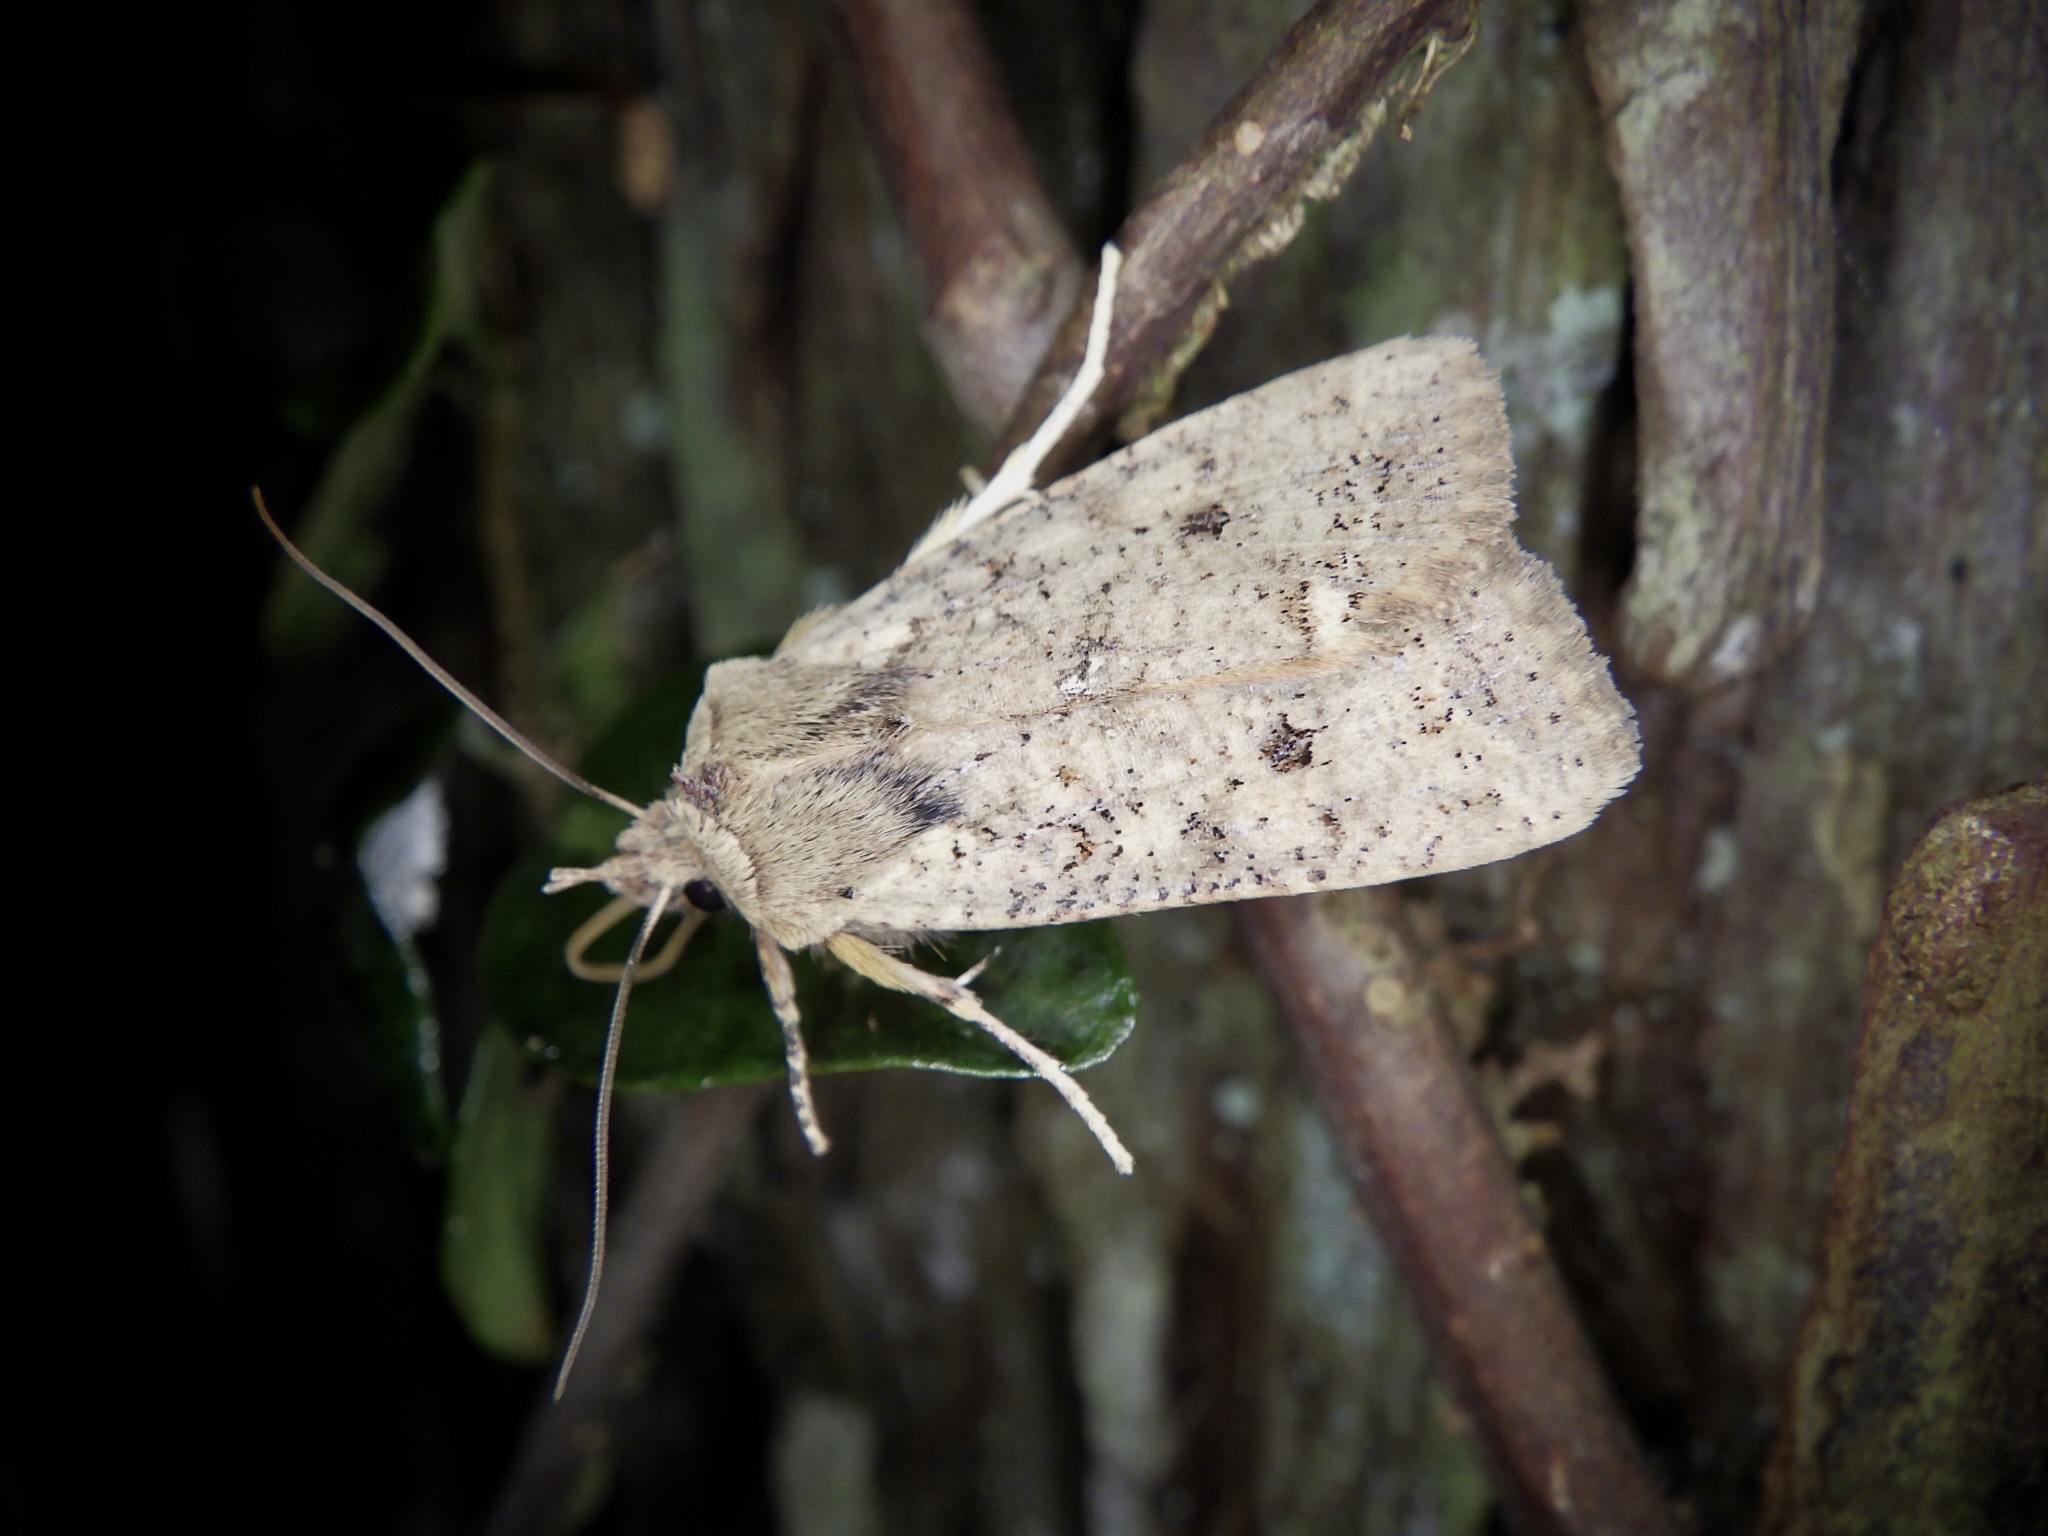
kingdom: Animalia
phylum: Arthropoda
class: Insecta
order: Lepidoptera
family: Noctuidae
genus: Rhynchaglaea
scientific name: Rhynchaglaea fuscipennis
